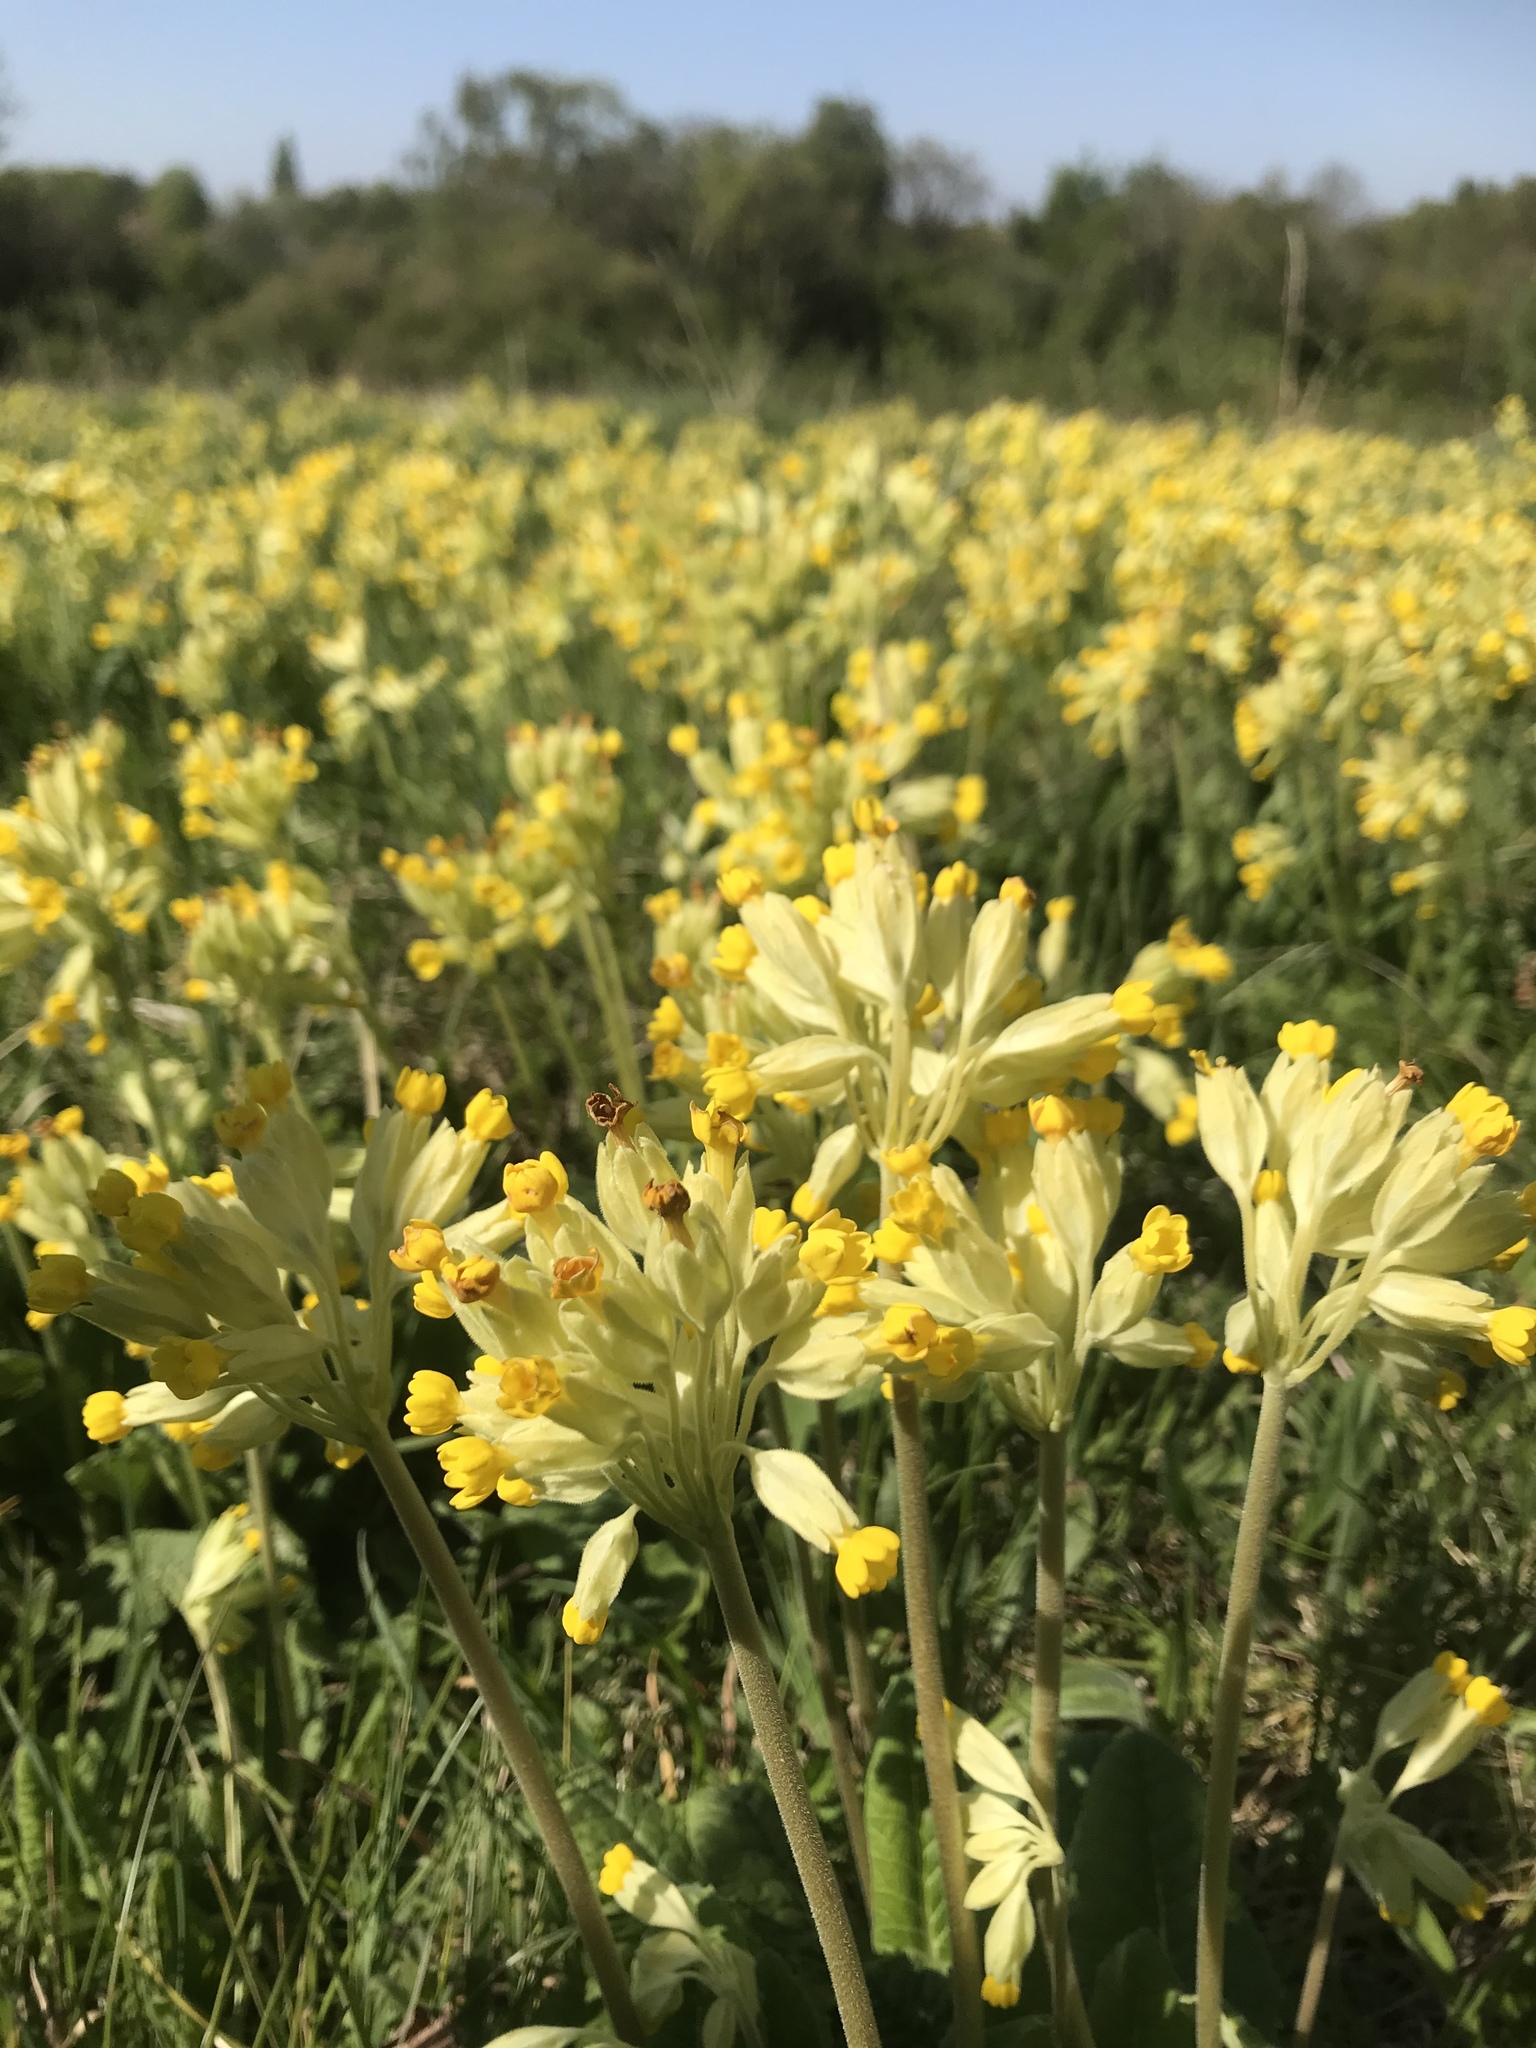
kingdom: Plantae
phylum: Tracheophyta
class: Magnoliopsida
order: Ericales
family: Primulaceae
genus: Primula
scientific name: Primula veris
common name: Cowslip
